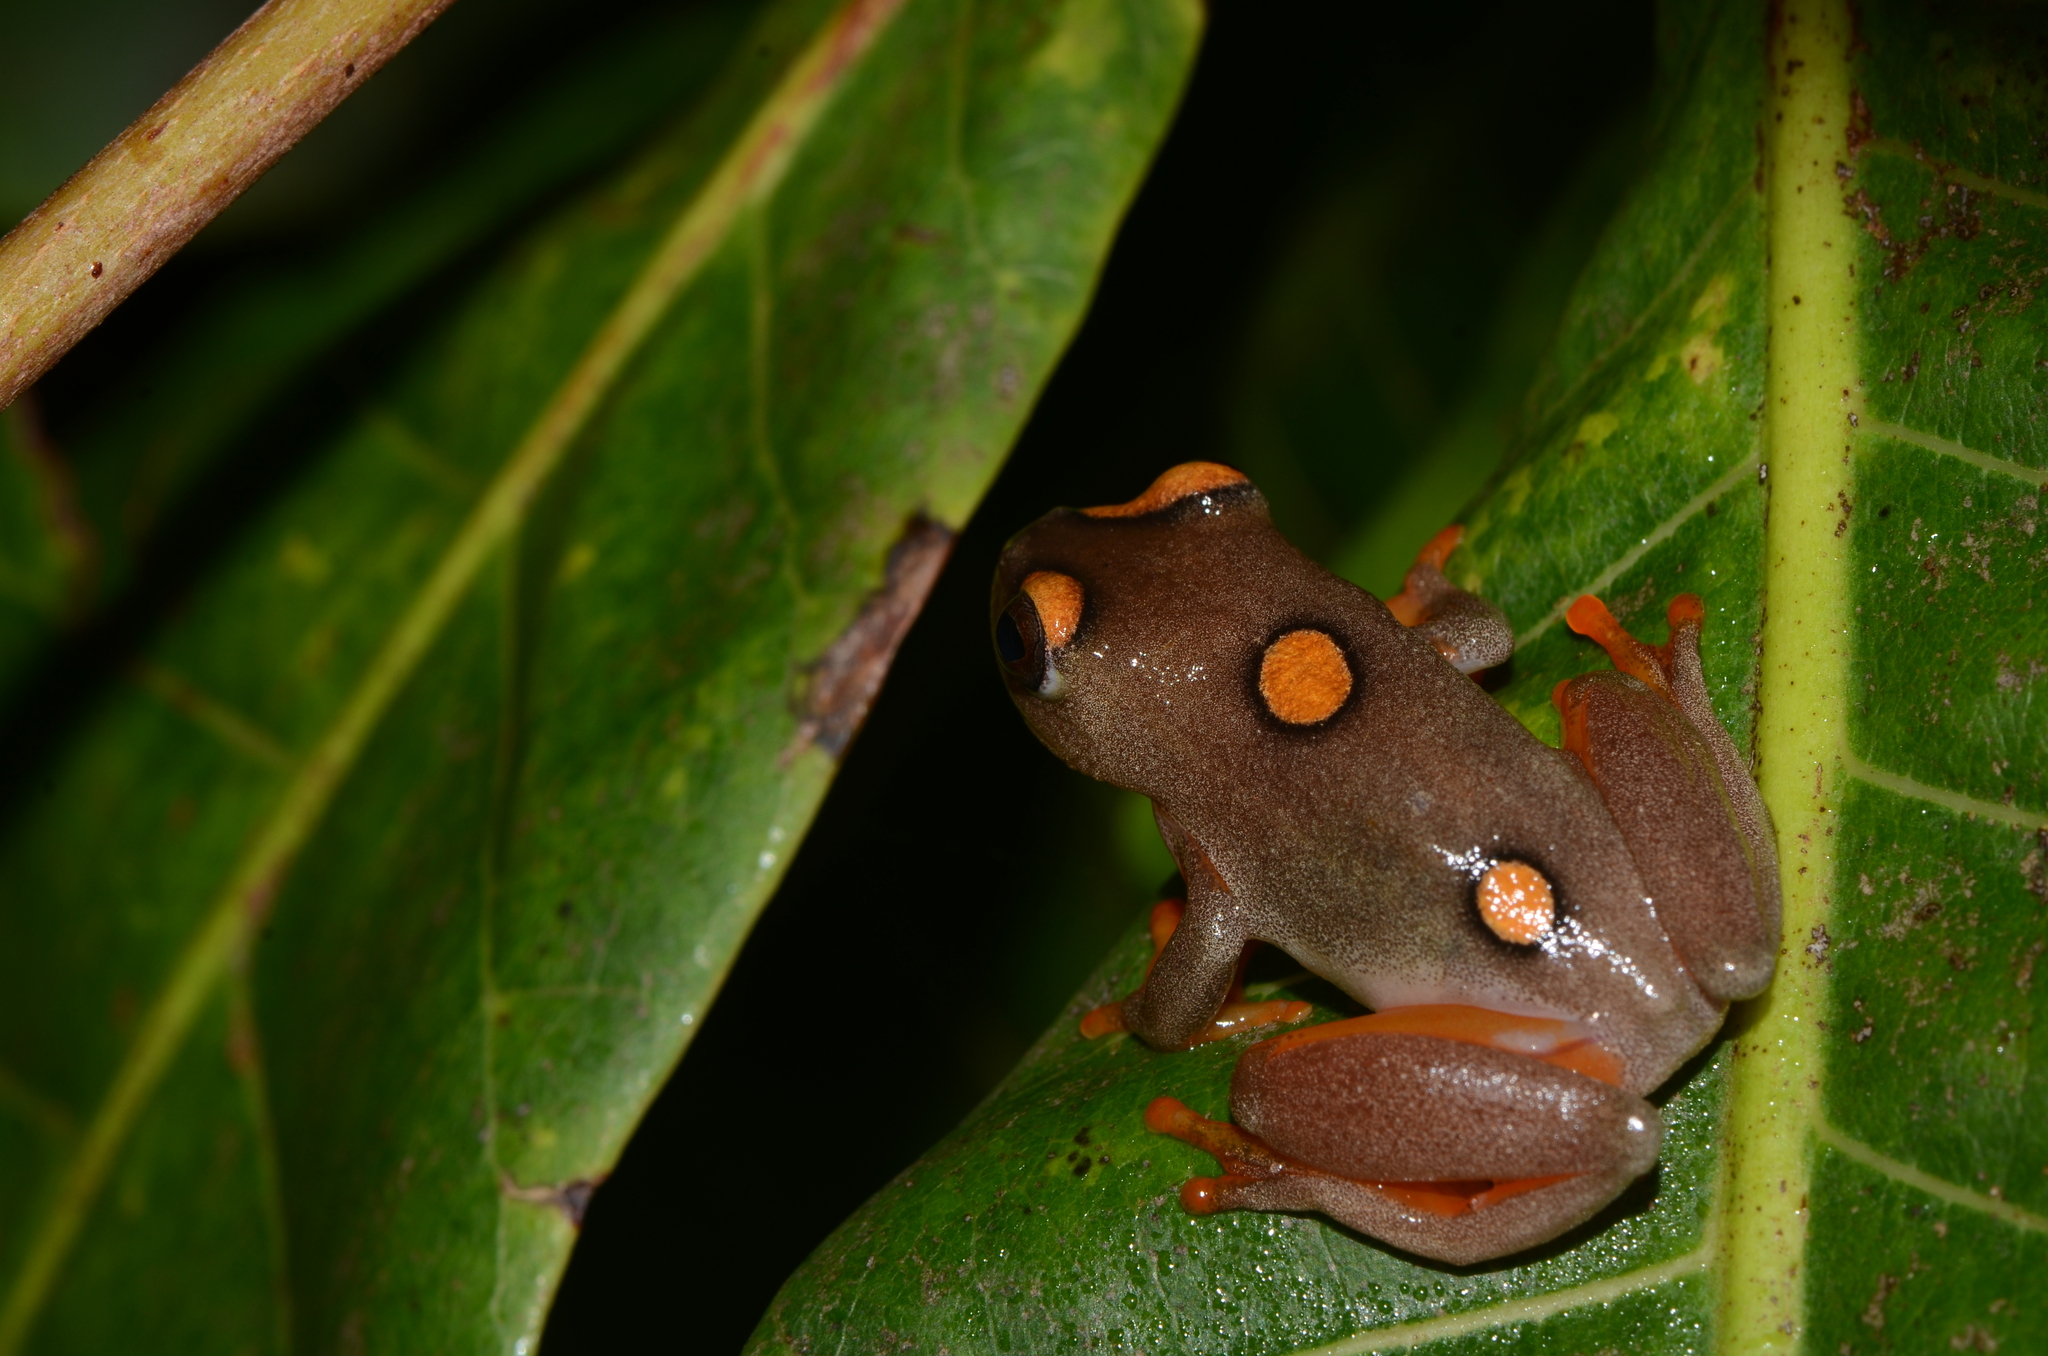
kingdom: Animalia
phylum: Chordata
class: Amphibia
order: Anura
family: Hyperoliidae
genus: Hyperolius
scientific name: Hyperolius argus
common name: Argus reed frog
